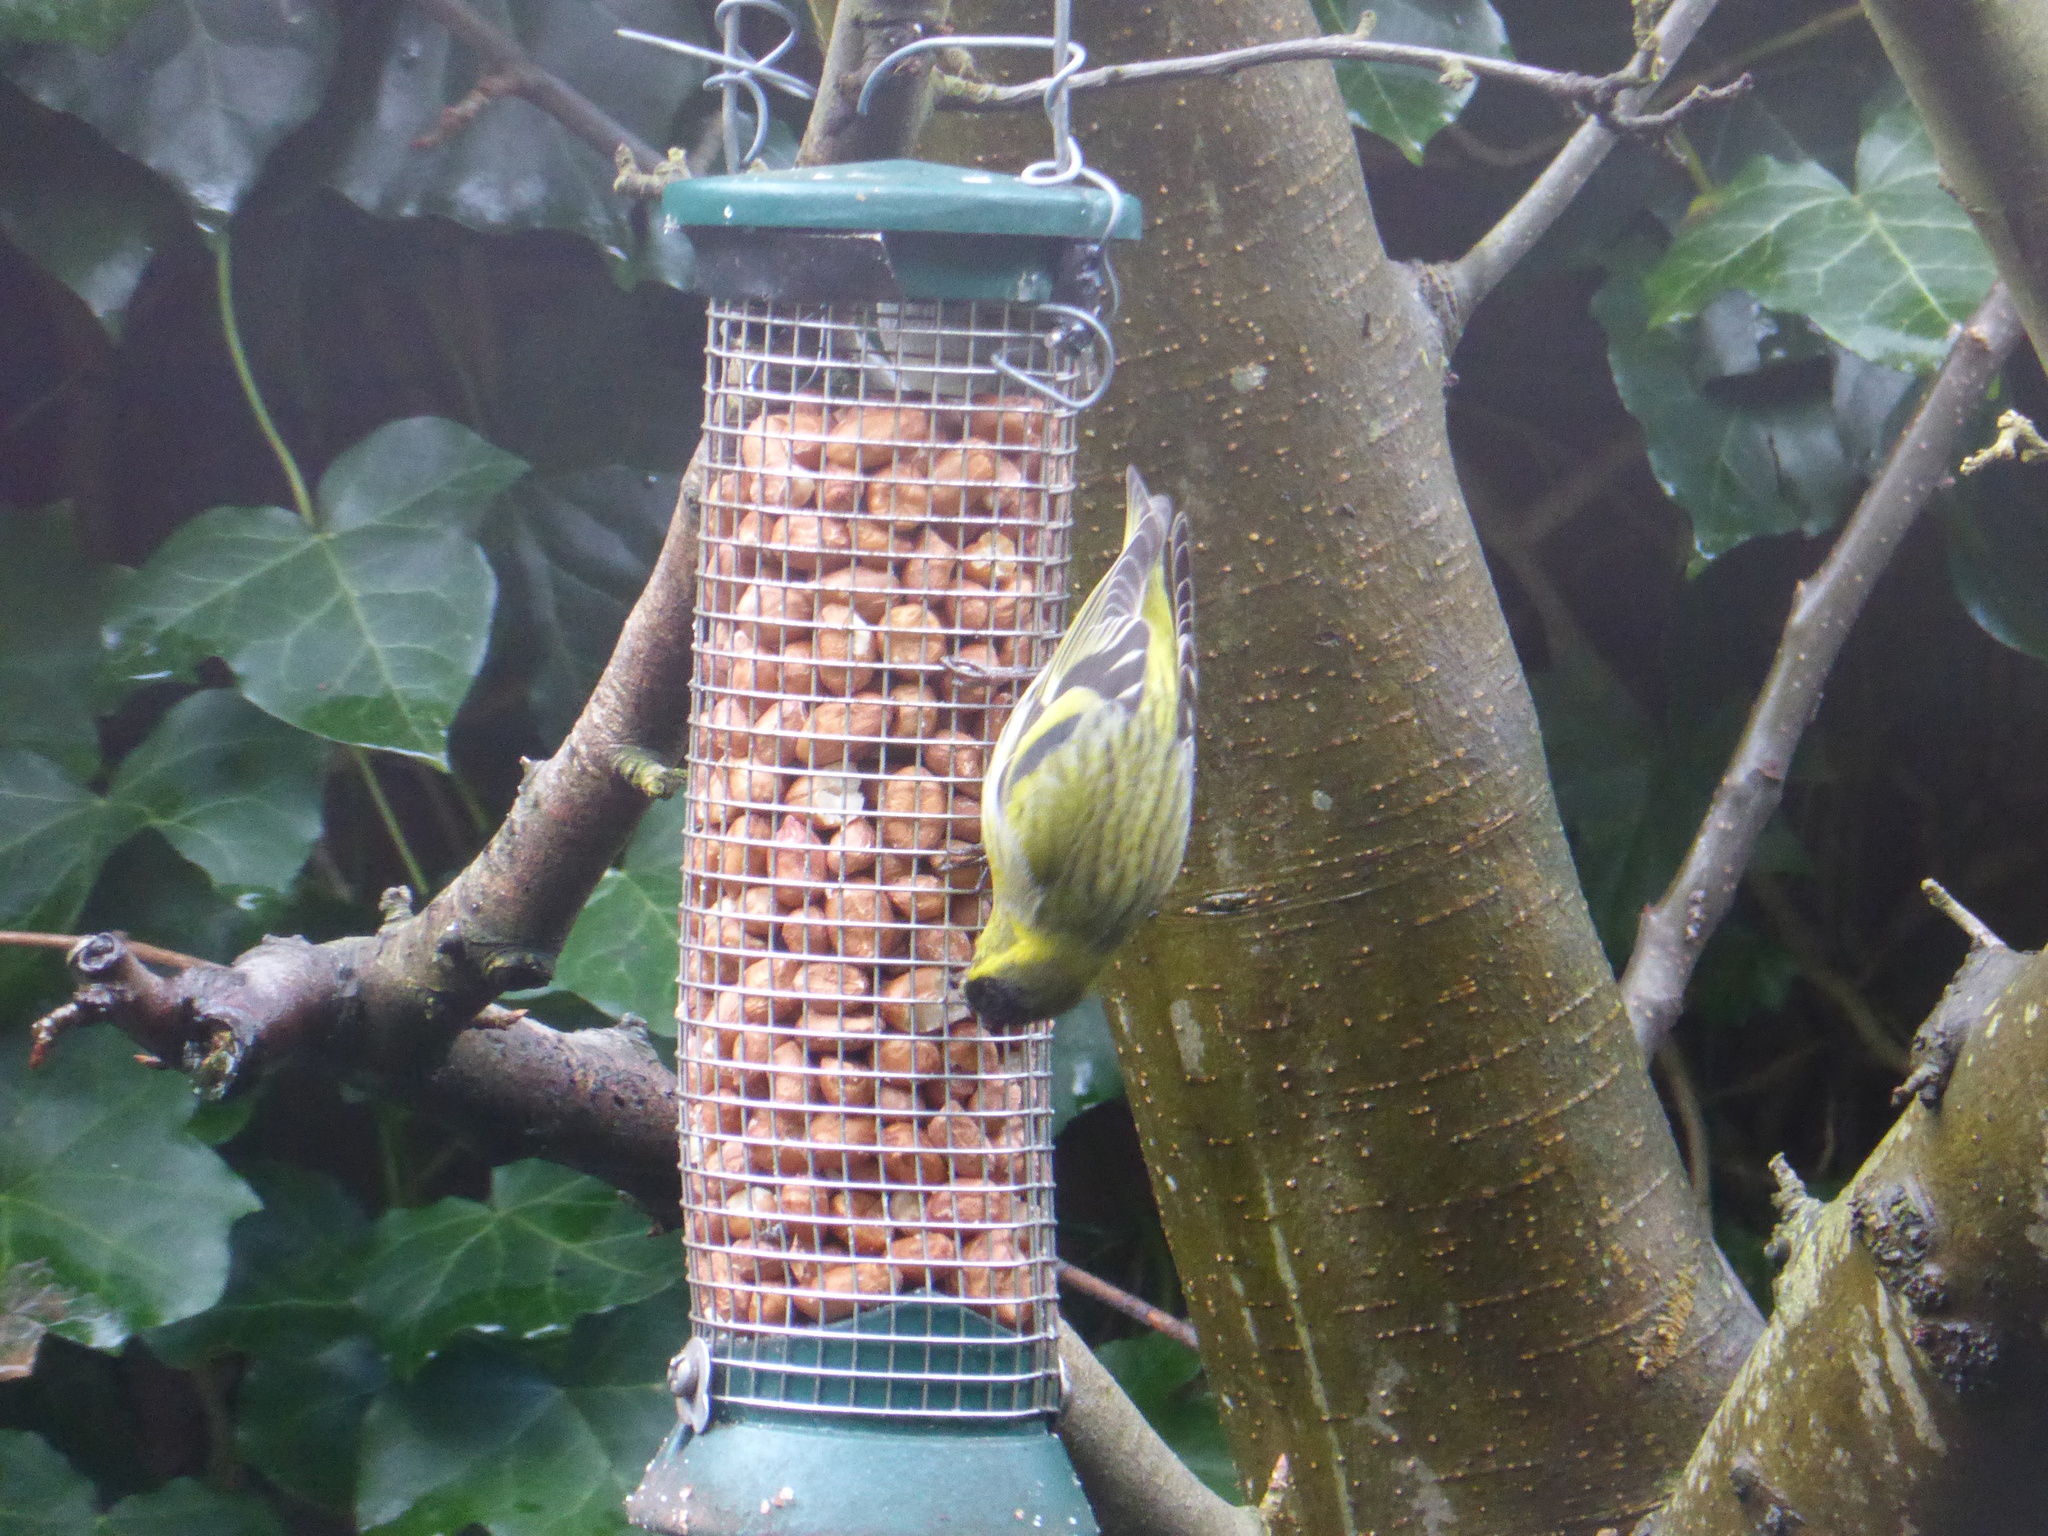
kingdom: Animalia
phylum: Chordata
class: Aves
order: Passeriformes
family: Fringillidae
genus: Spinus
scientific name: Spinus spinus
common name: Eurasian siskin
